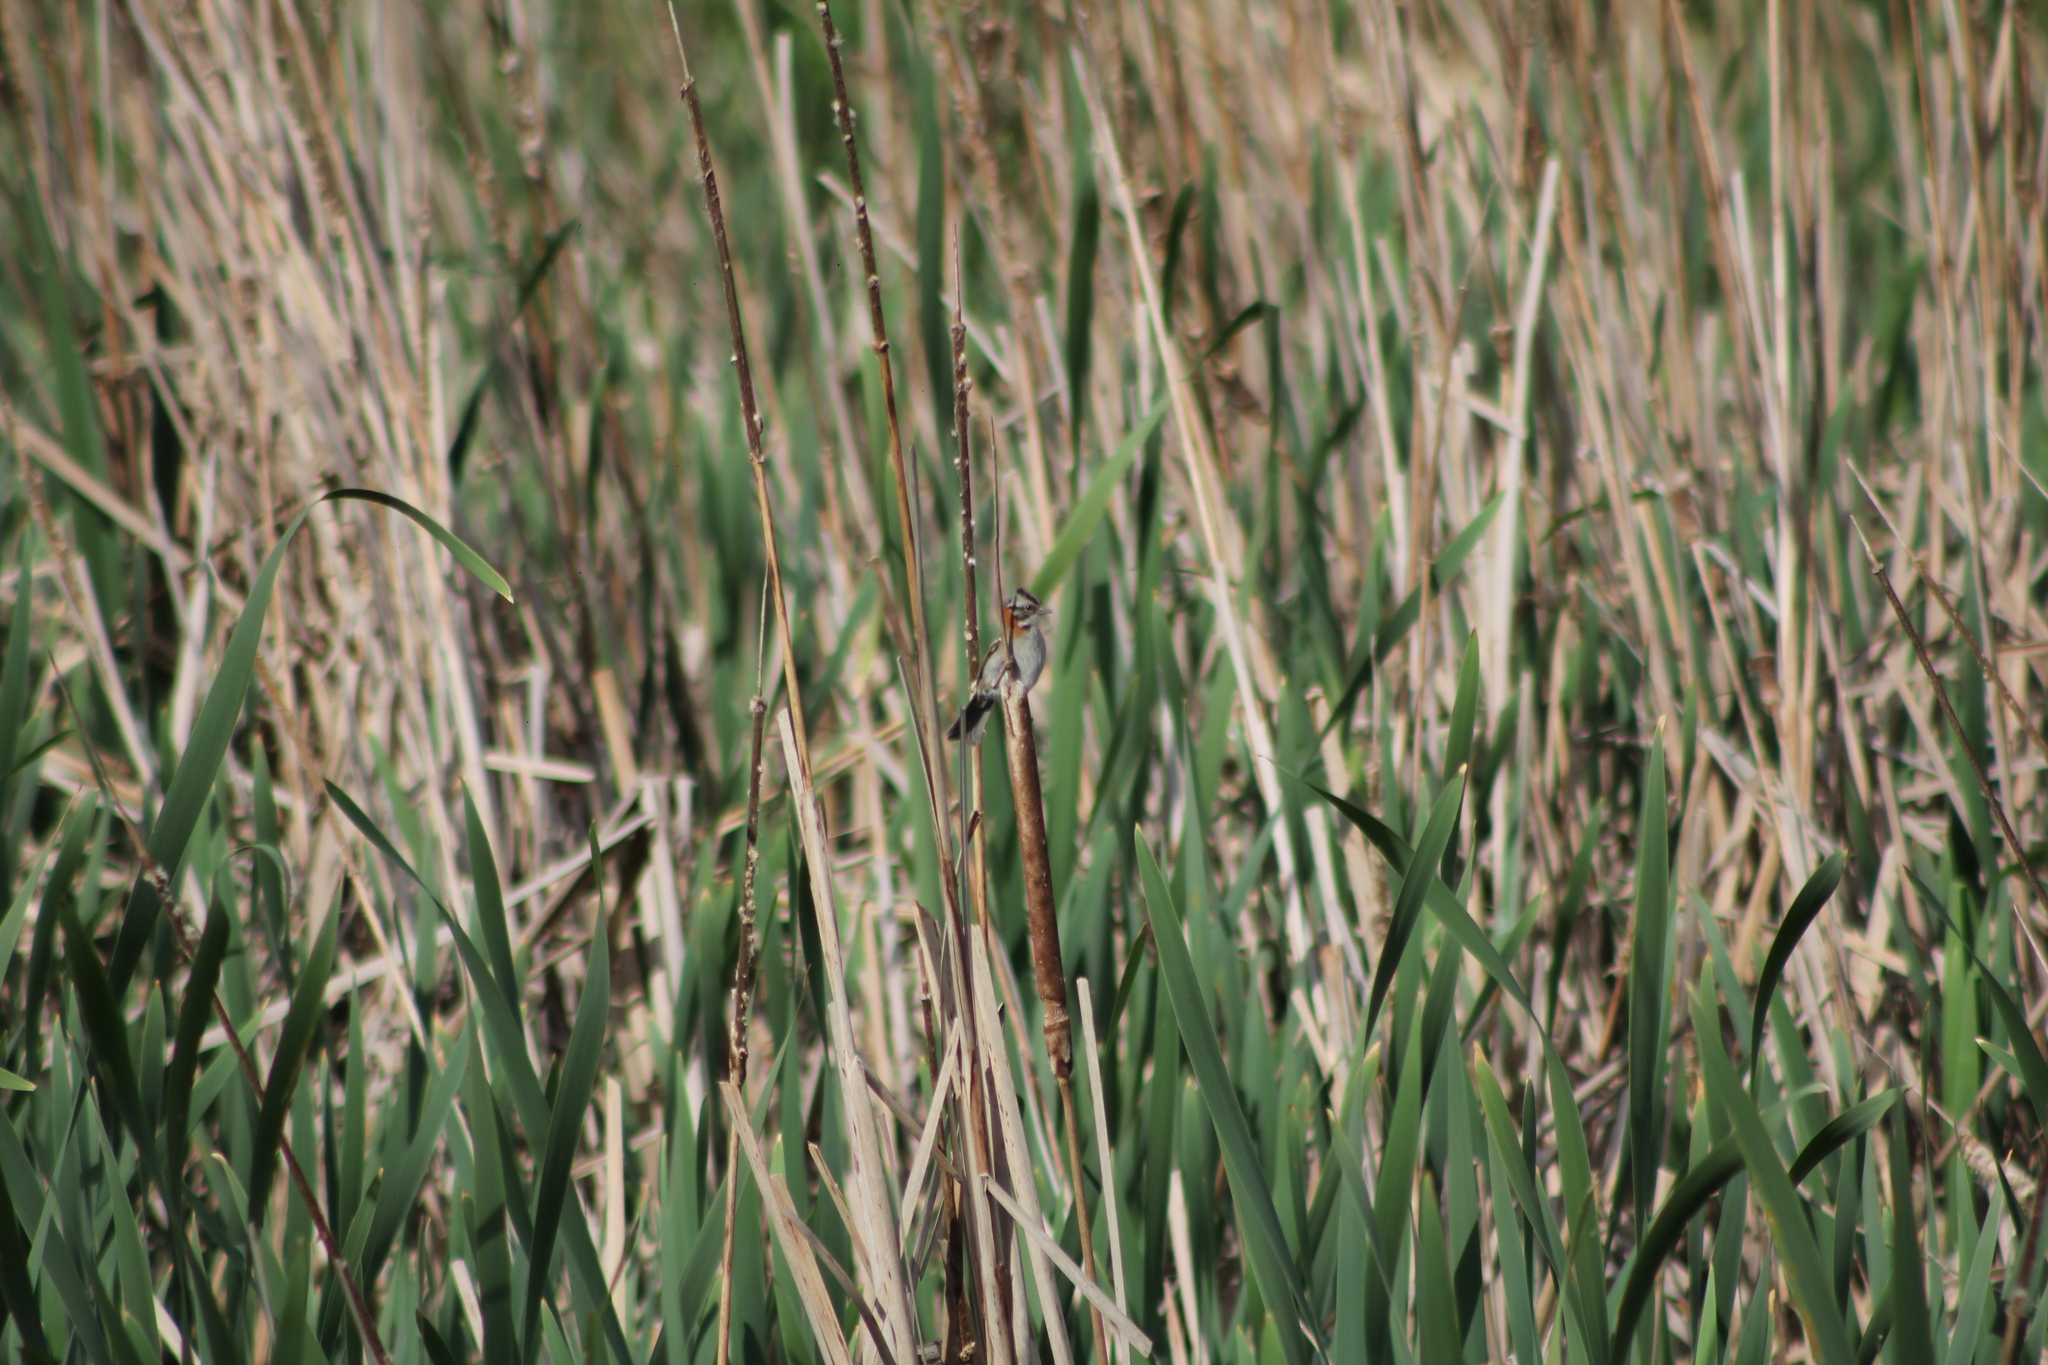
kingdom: Animalia
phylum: Chordata
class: Aves
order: Passeriformes
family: Passerellidae
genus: Zonotrichia
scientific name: Zonotrichia capensis
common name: Rufous-collared sparrow
